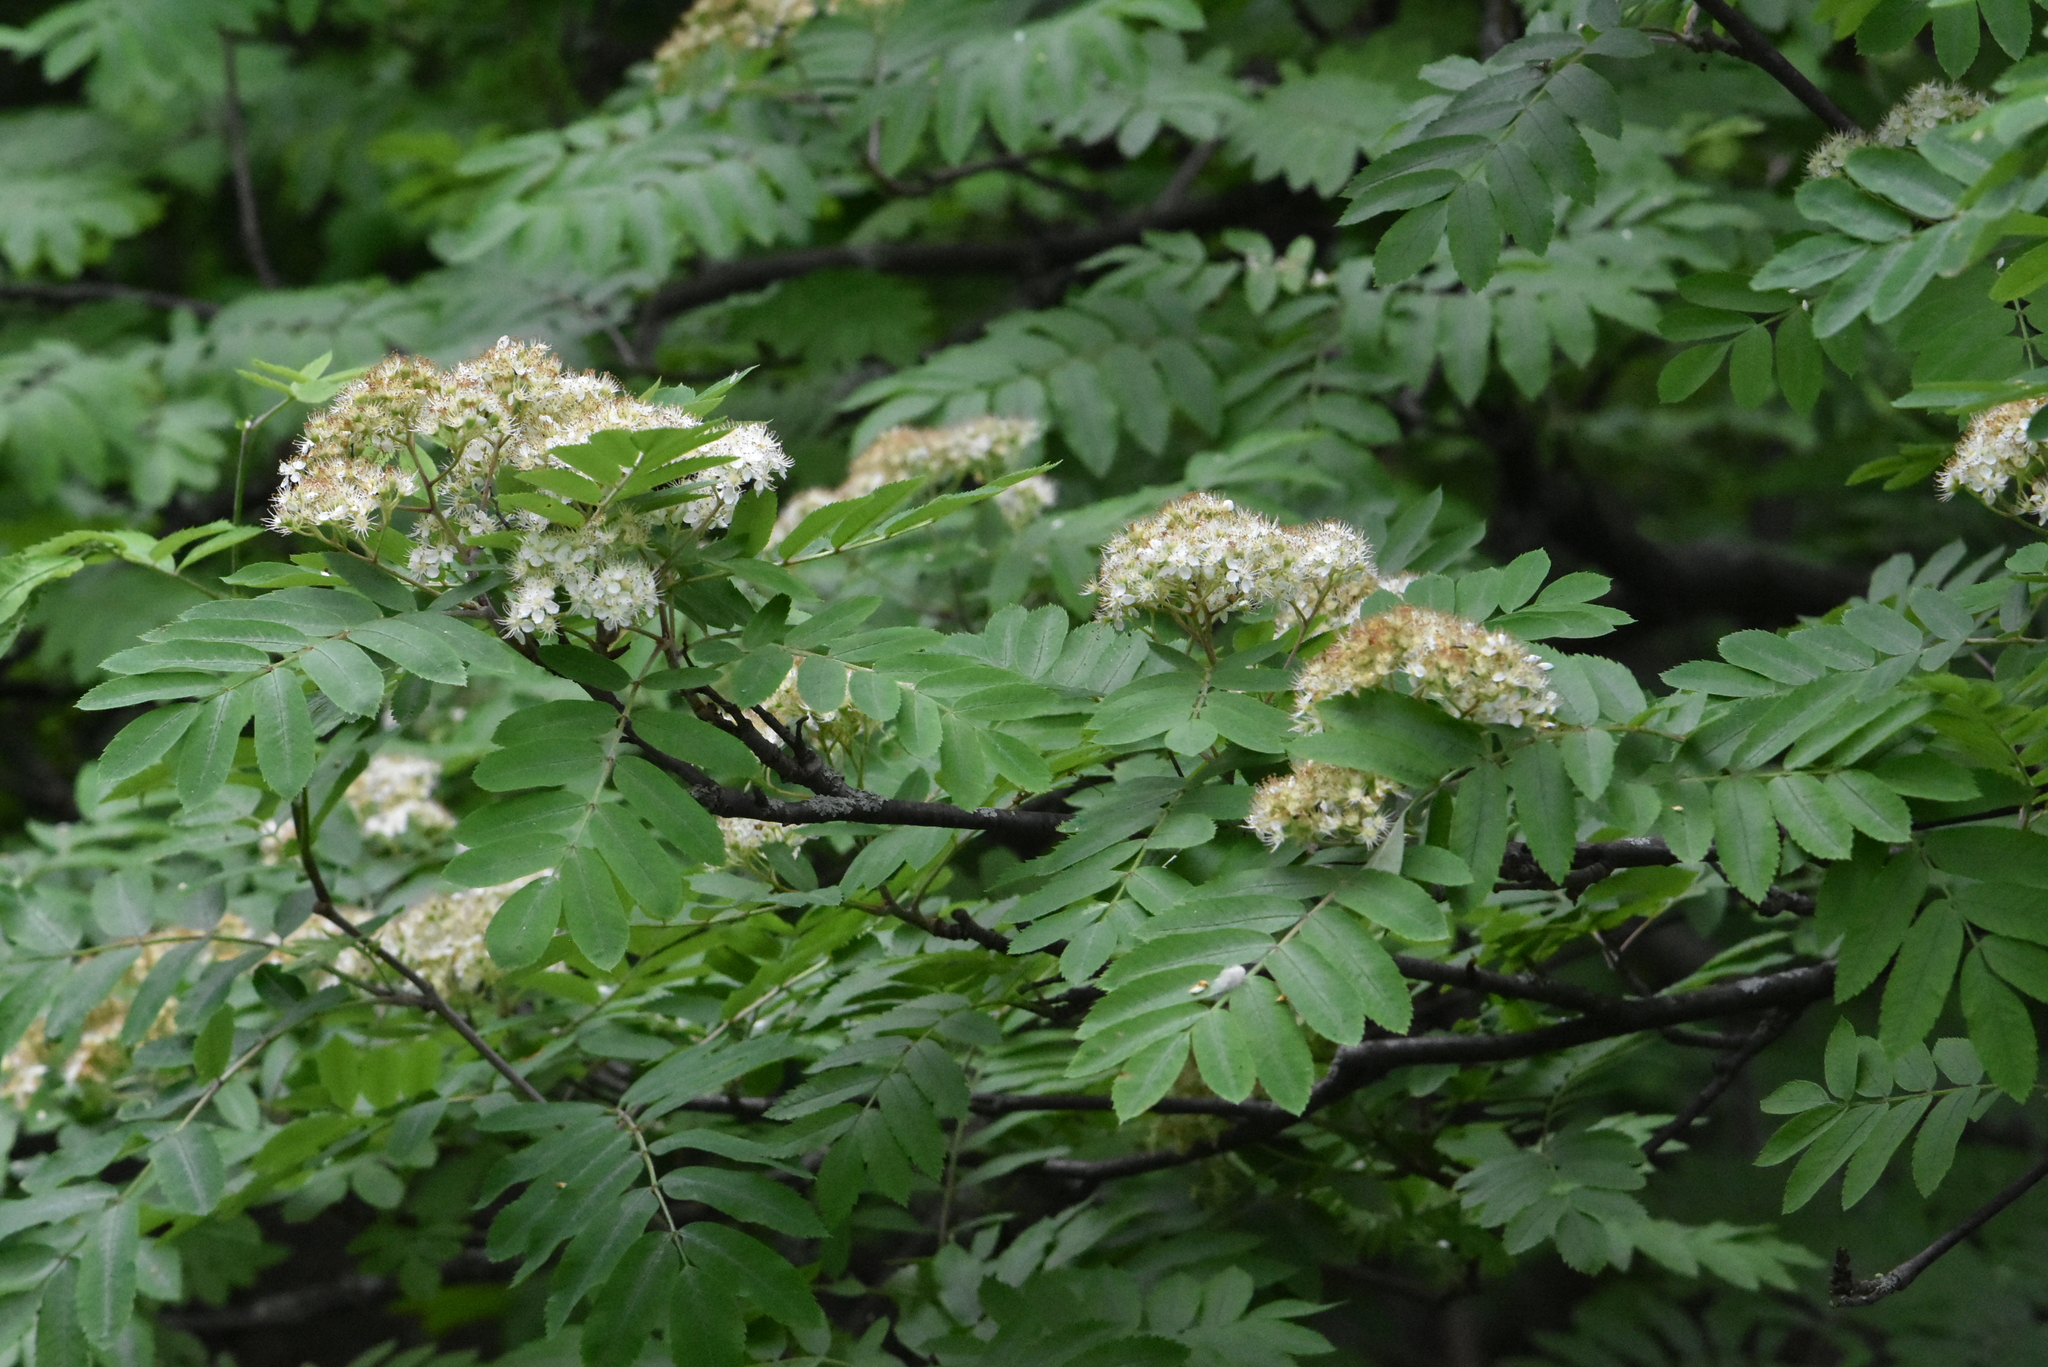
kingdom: Plantae
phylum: Tracheophyta
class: Magnoliopsida
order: Rosales
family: Rosaceae
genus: Sorbus
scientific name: Sorbus aucuparia
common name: Rowan
